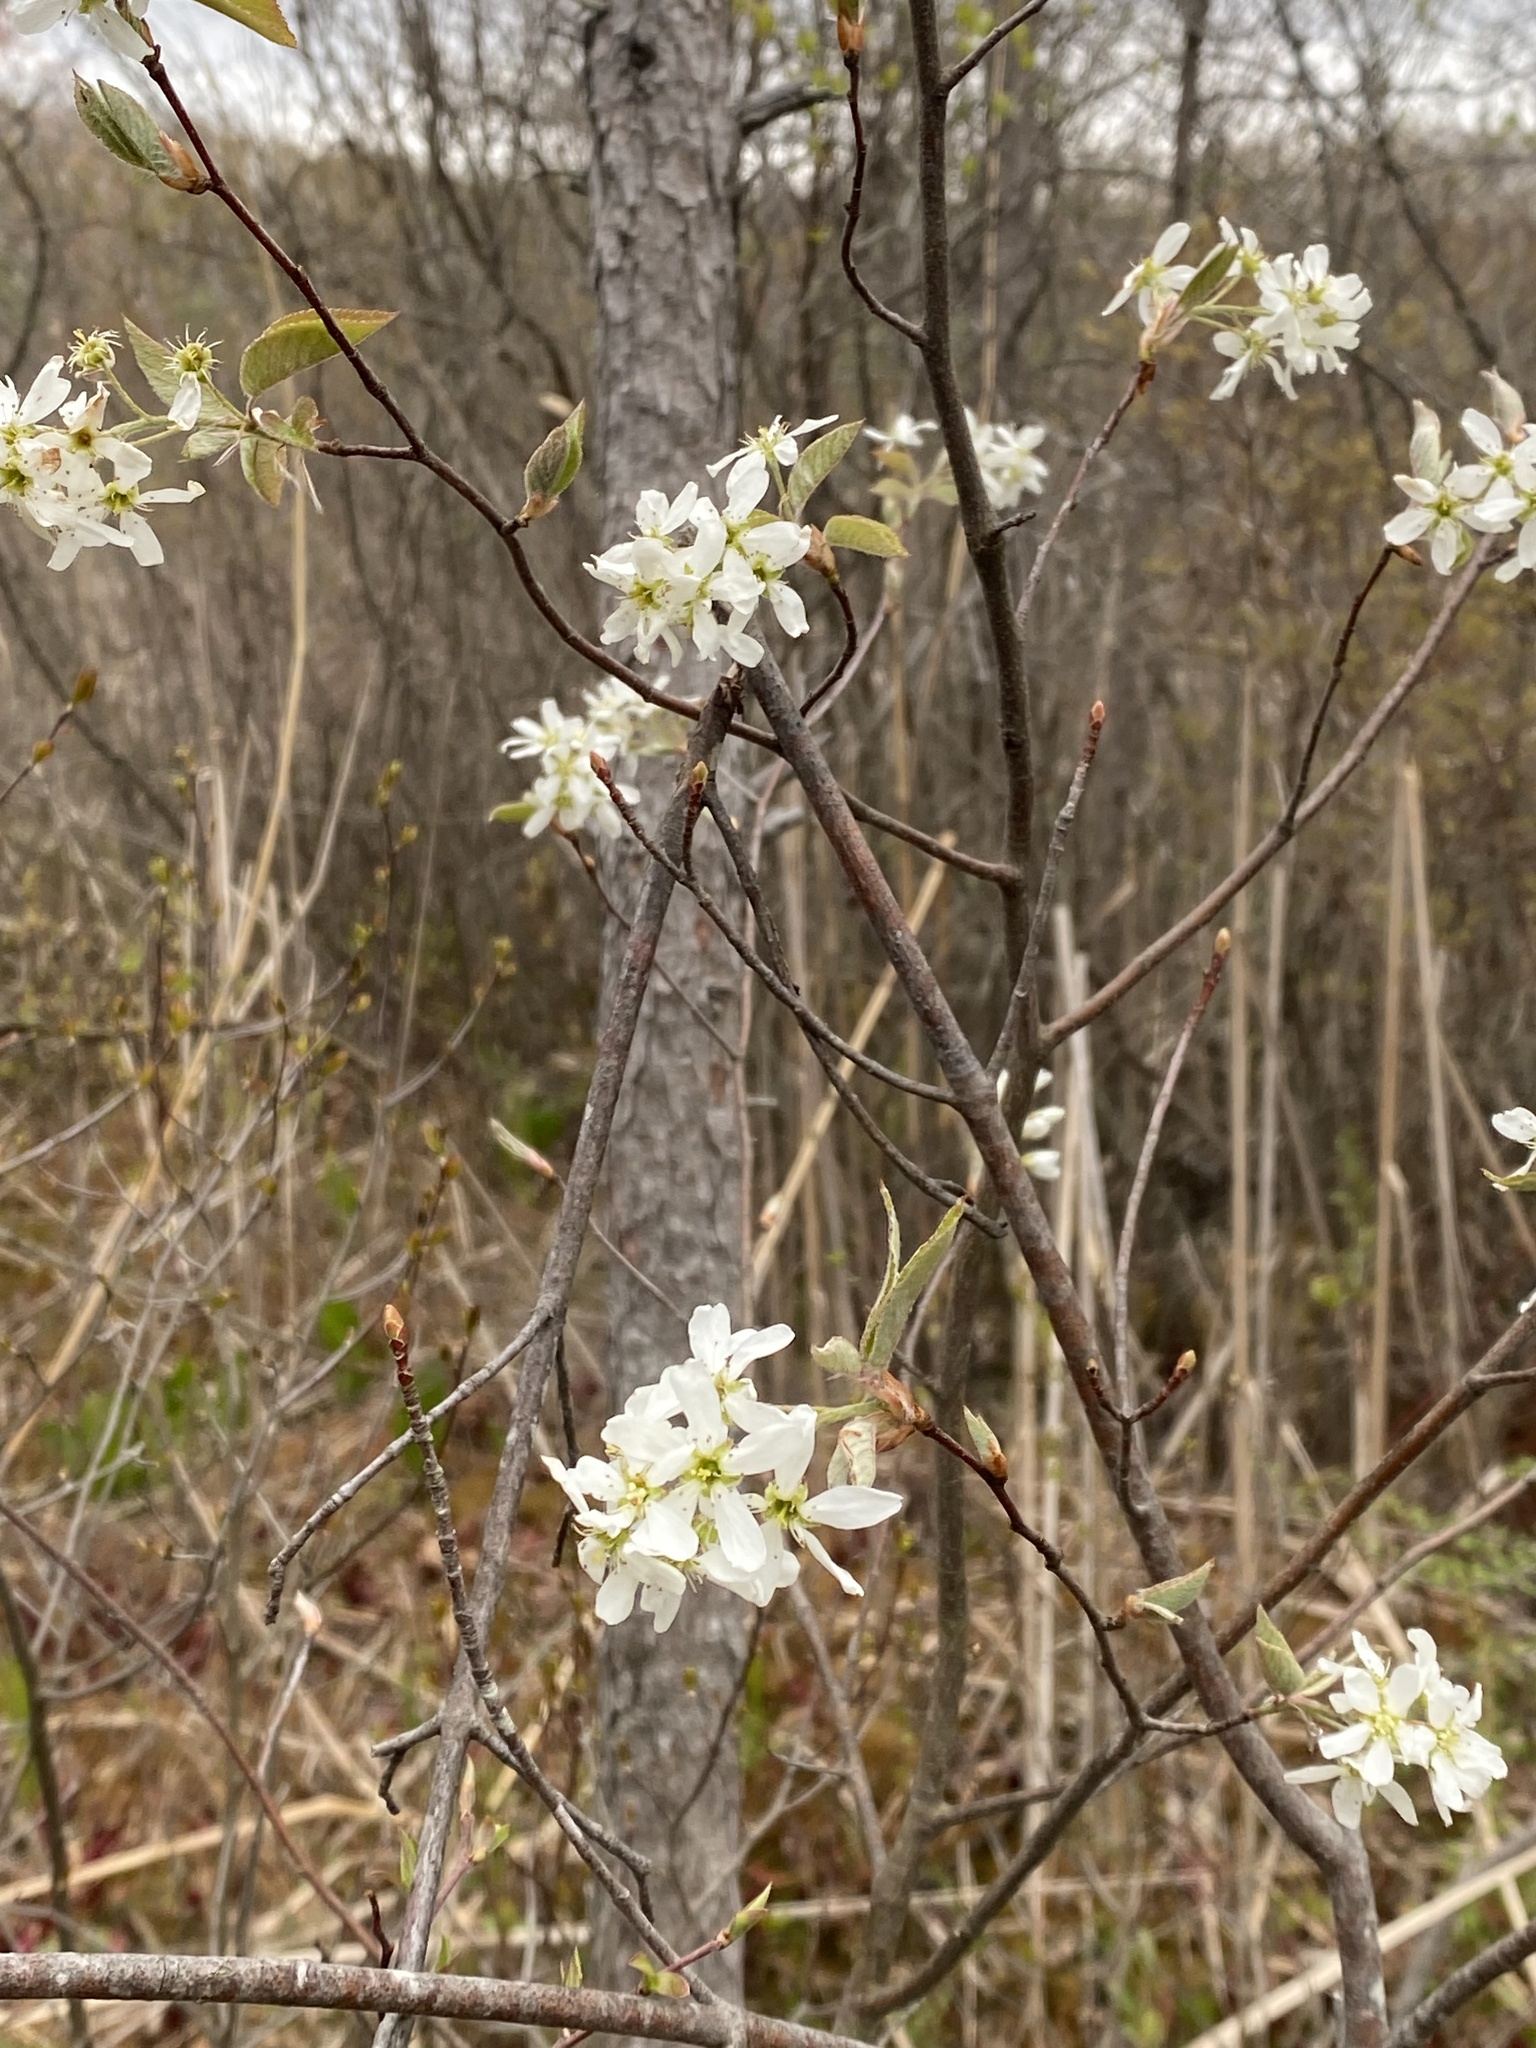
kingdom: Plantae
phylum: Tracheophyta
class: Magnoliopsida
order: Rosales
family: Rosaceae
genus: Amelanchier
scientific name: Amelanchier arborea
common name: Downy serviceberry
